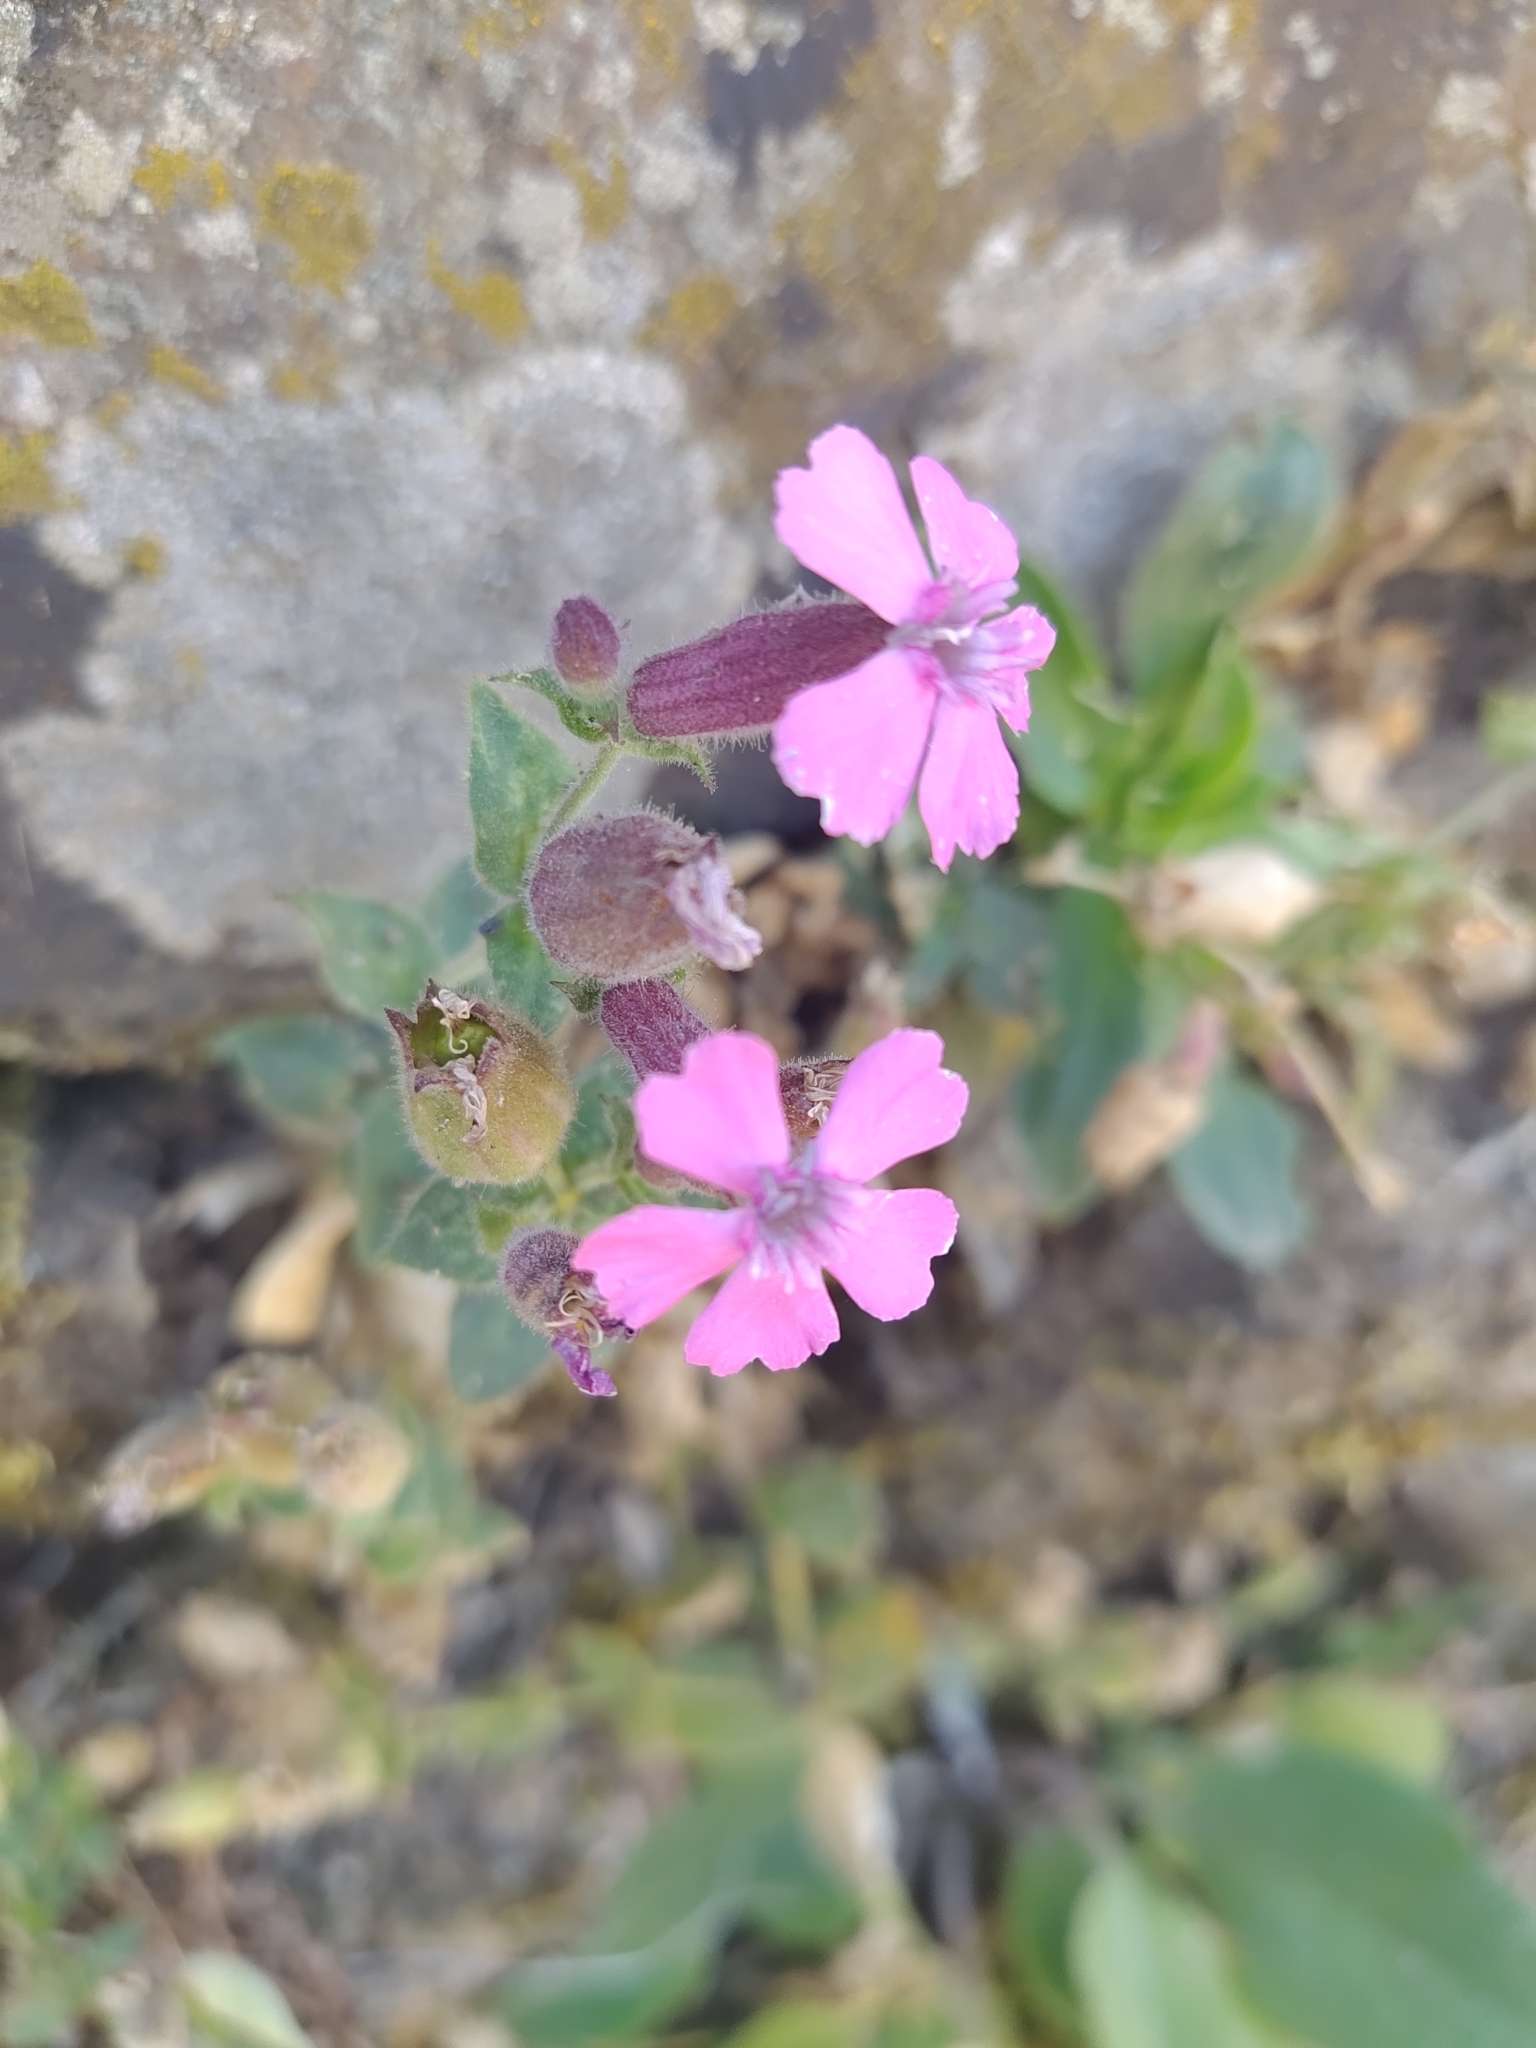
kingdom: Plantae
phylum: Tracheophyta
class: Magnoliopsida
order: Caryophyllales
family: Caryophyllaceae
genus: Silene
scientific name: Silene acutifolia
